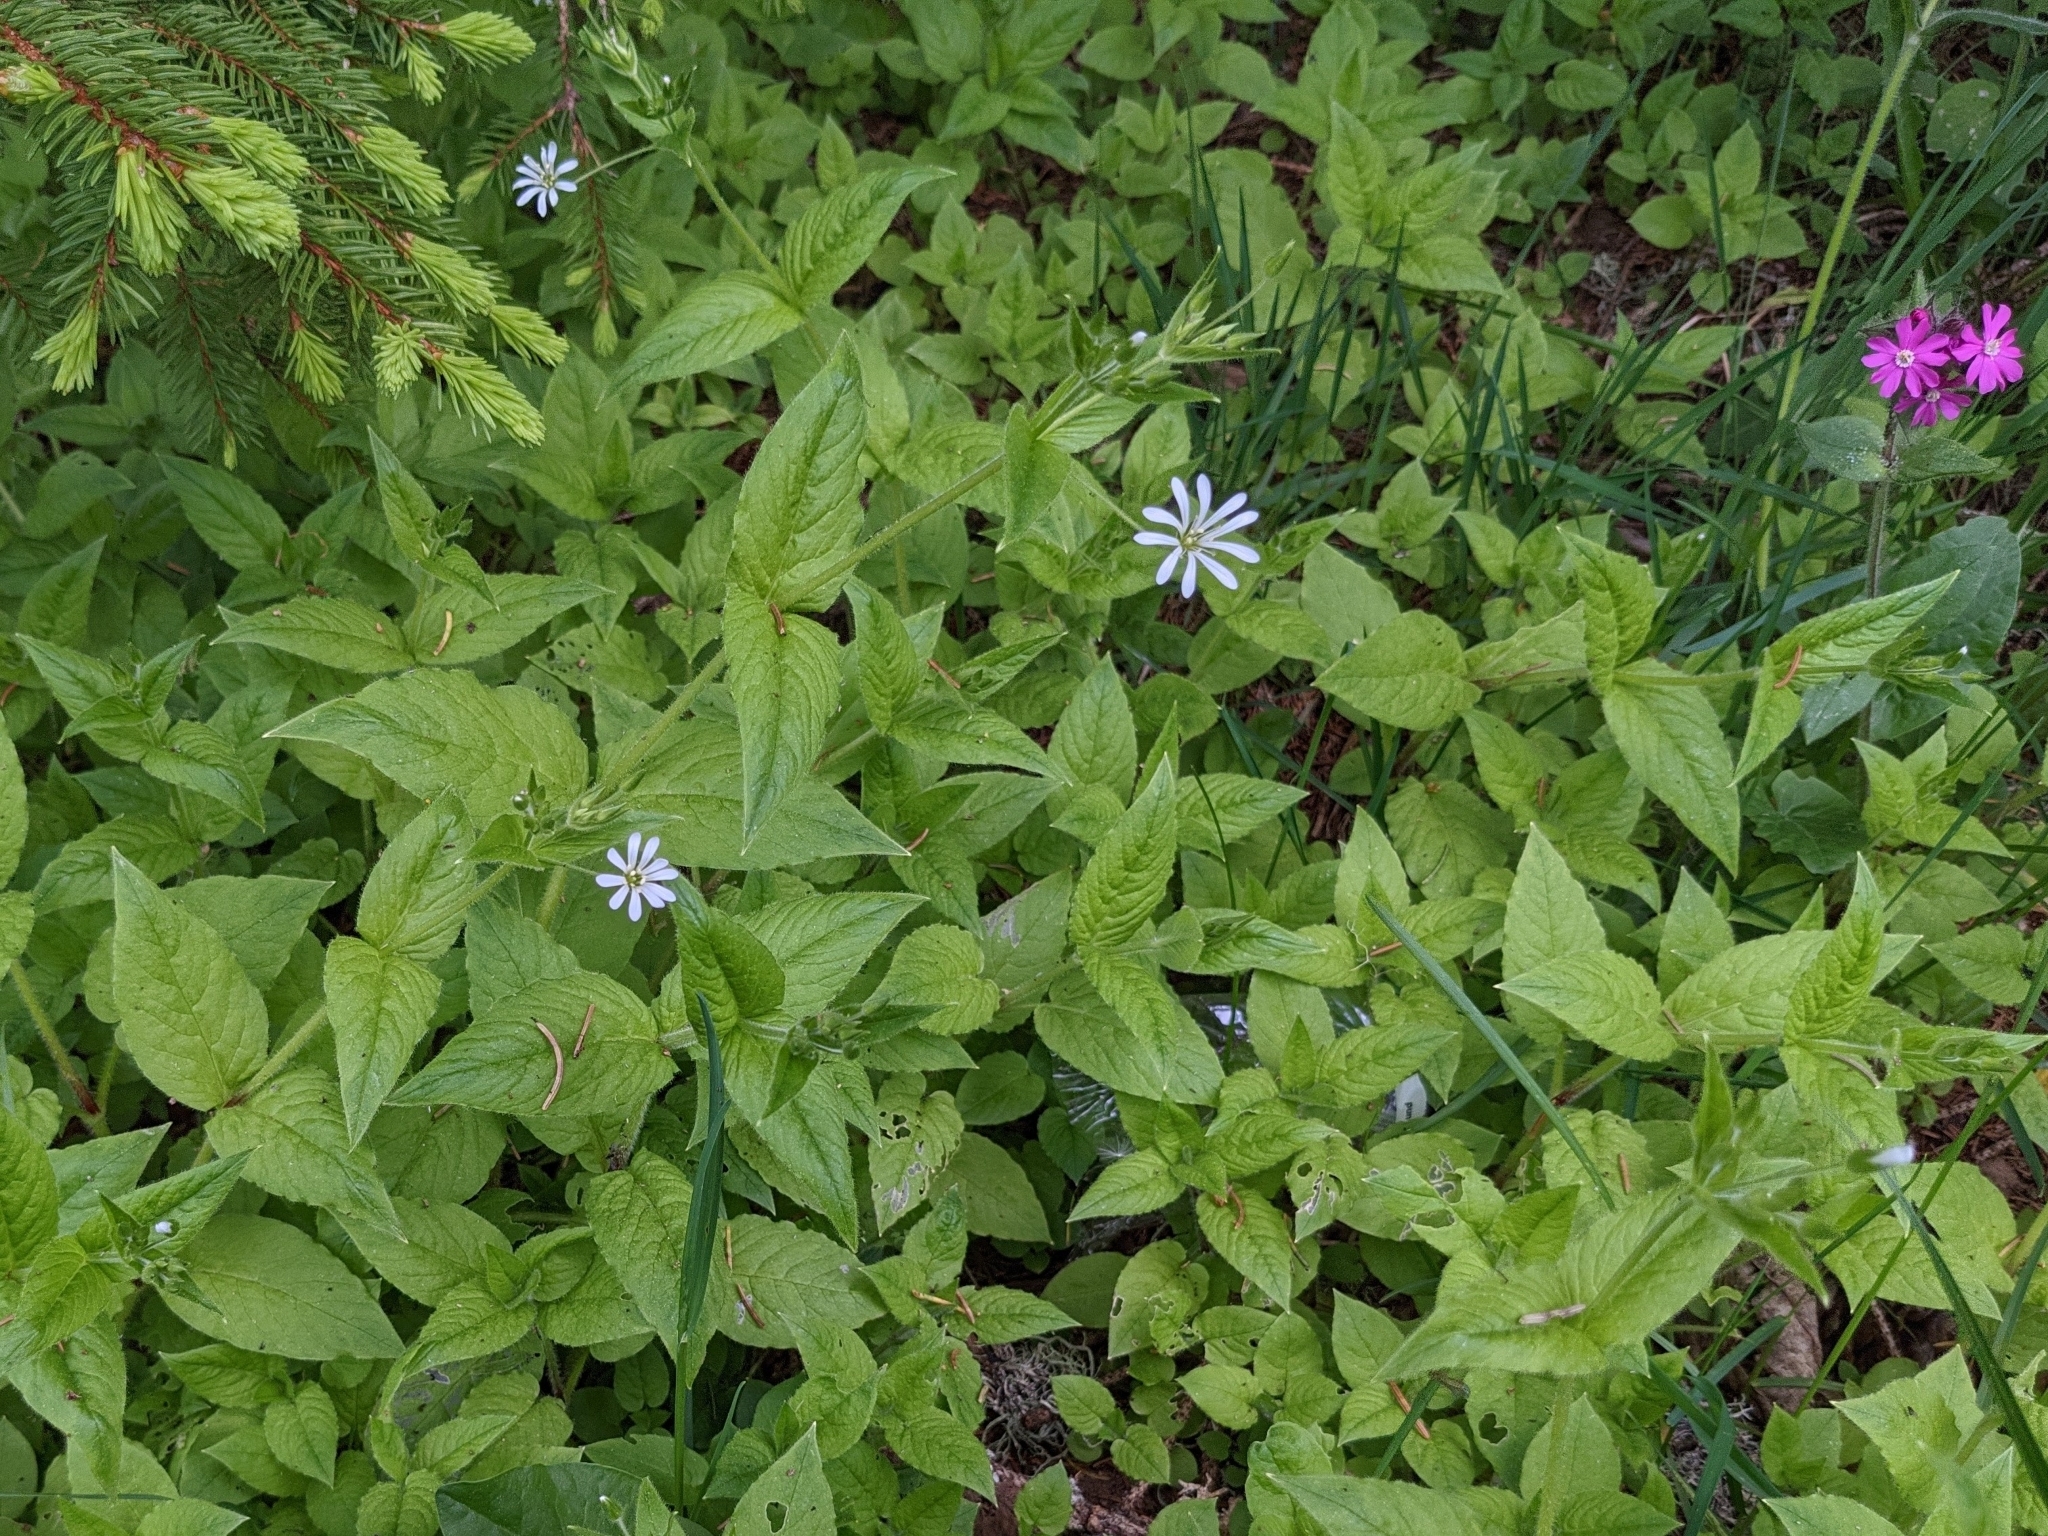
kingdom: Plantae
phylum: Tracheophyta
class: Magnoliopsida
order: Caryophyllales
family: Caryophyllaceae
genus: Stellaria
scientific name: Stellaria nemorum
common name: Wood stitchwort
